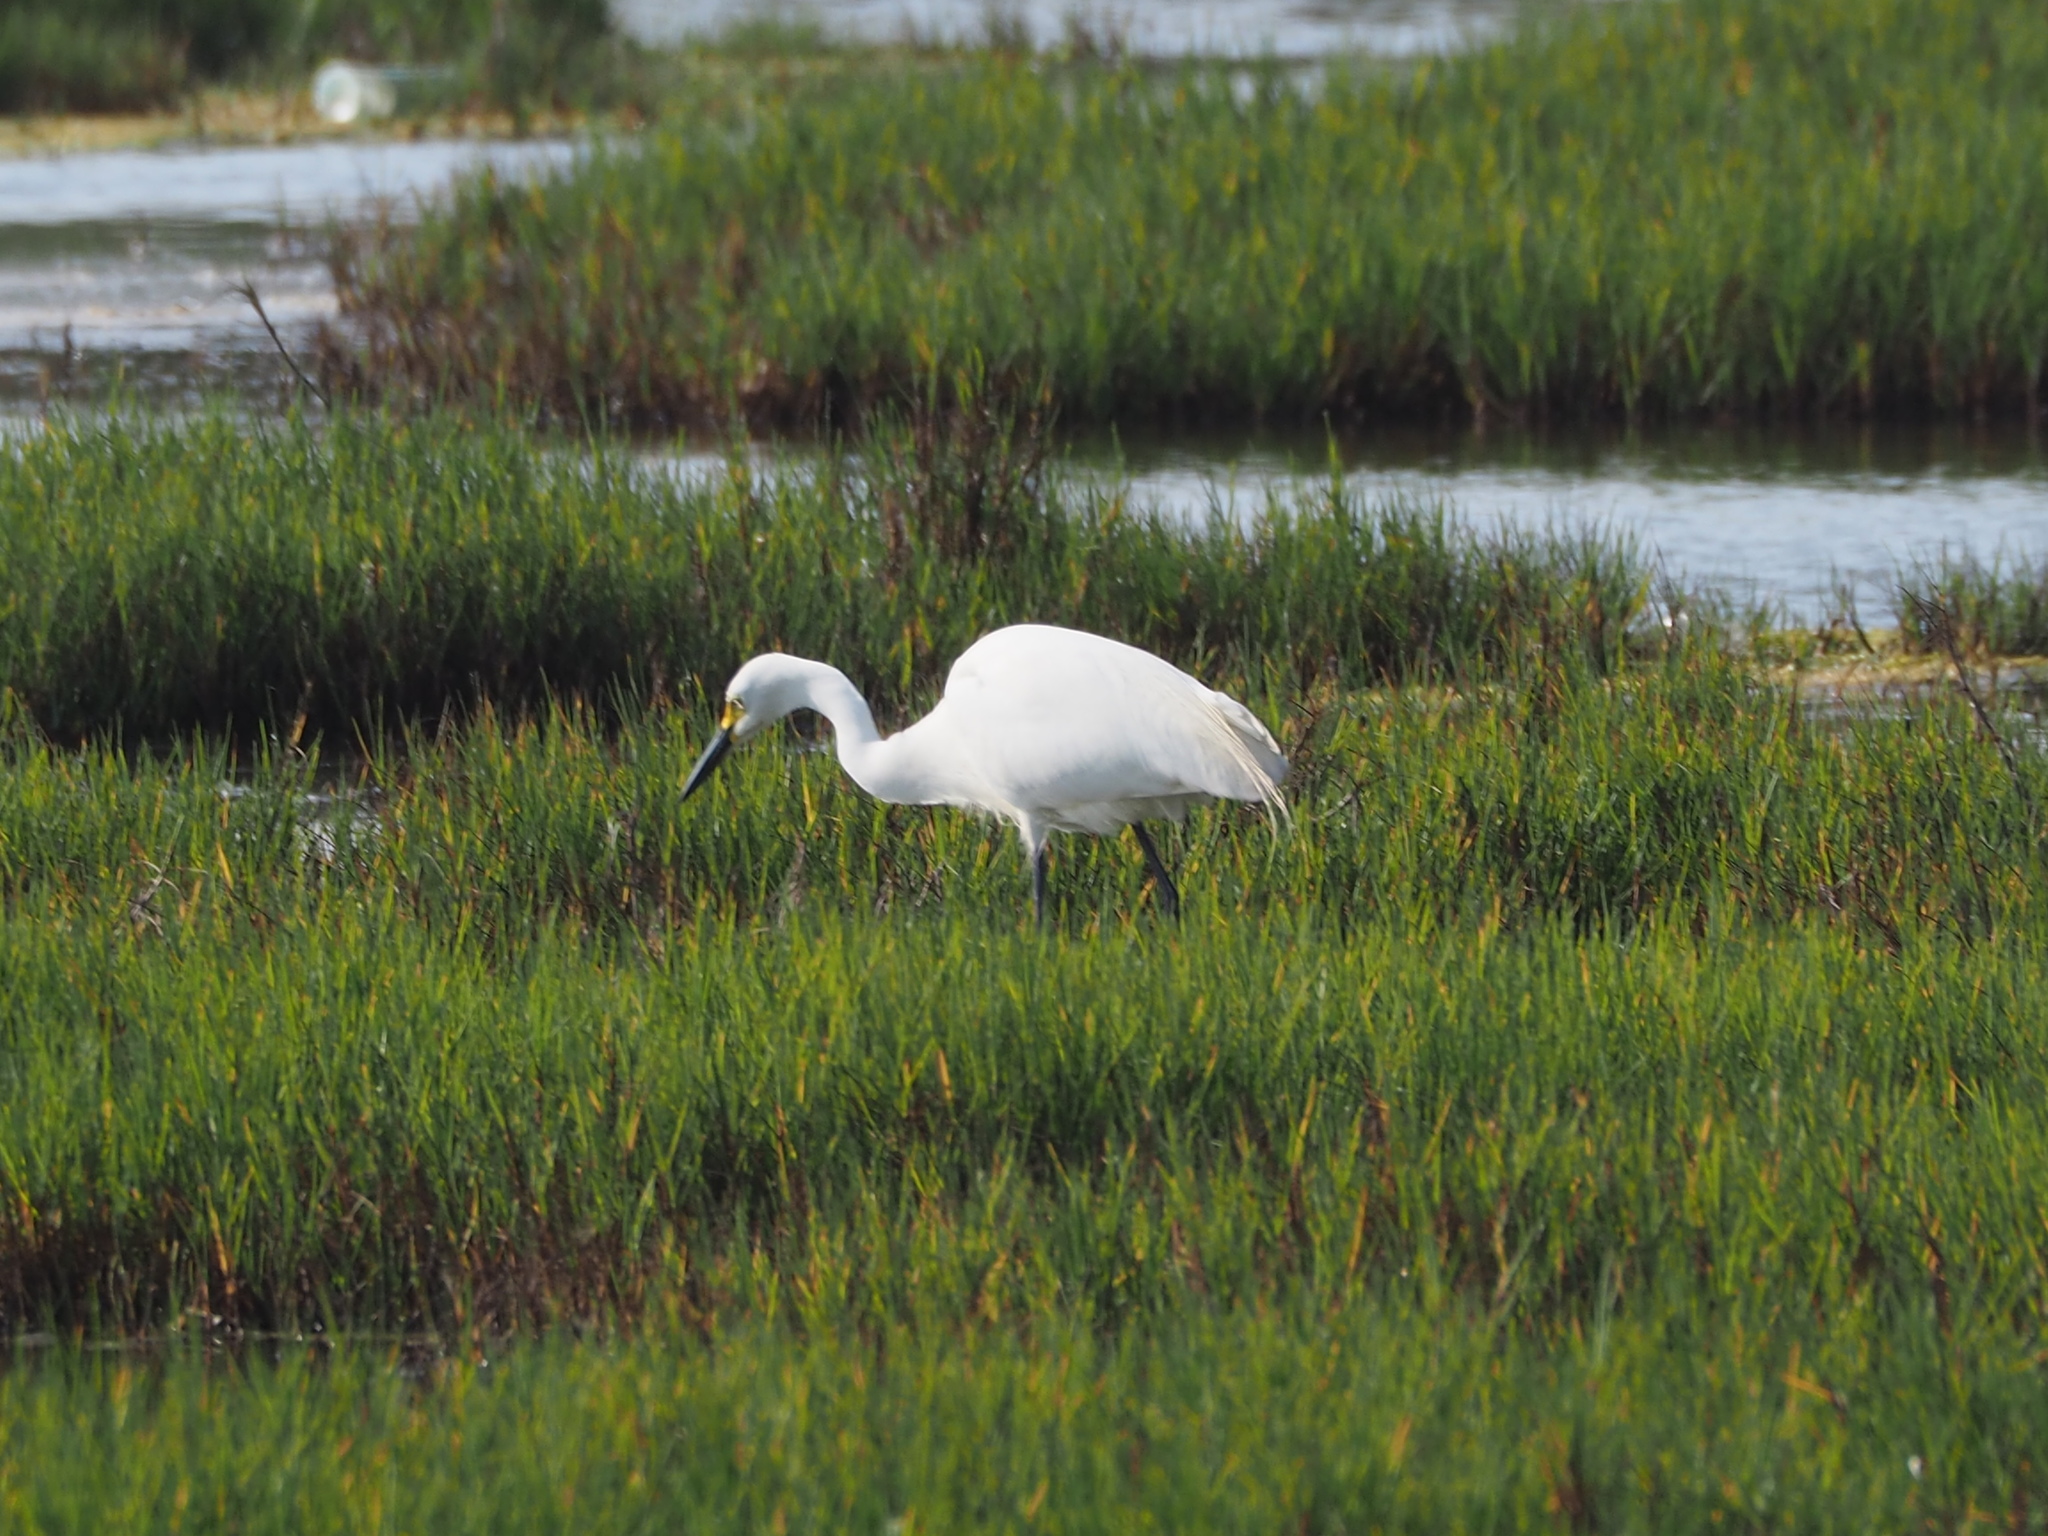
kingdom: Animalia
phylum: Chordata
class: Aves
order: Pelecaniformes
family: Ardeidae
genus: Egretta
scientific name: Egretta intermedia
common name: Intermediate egret
